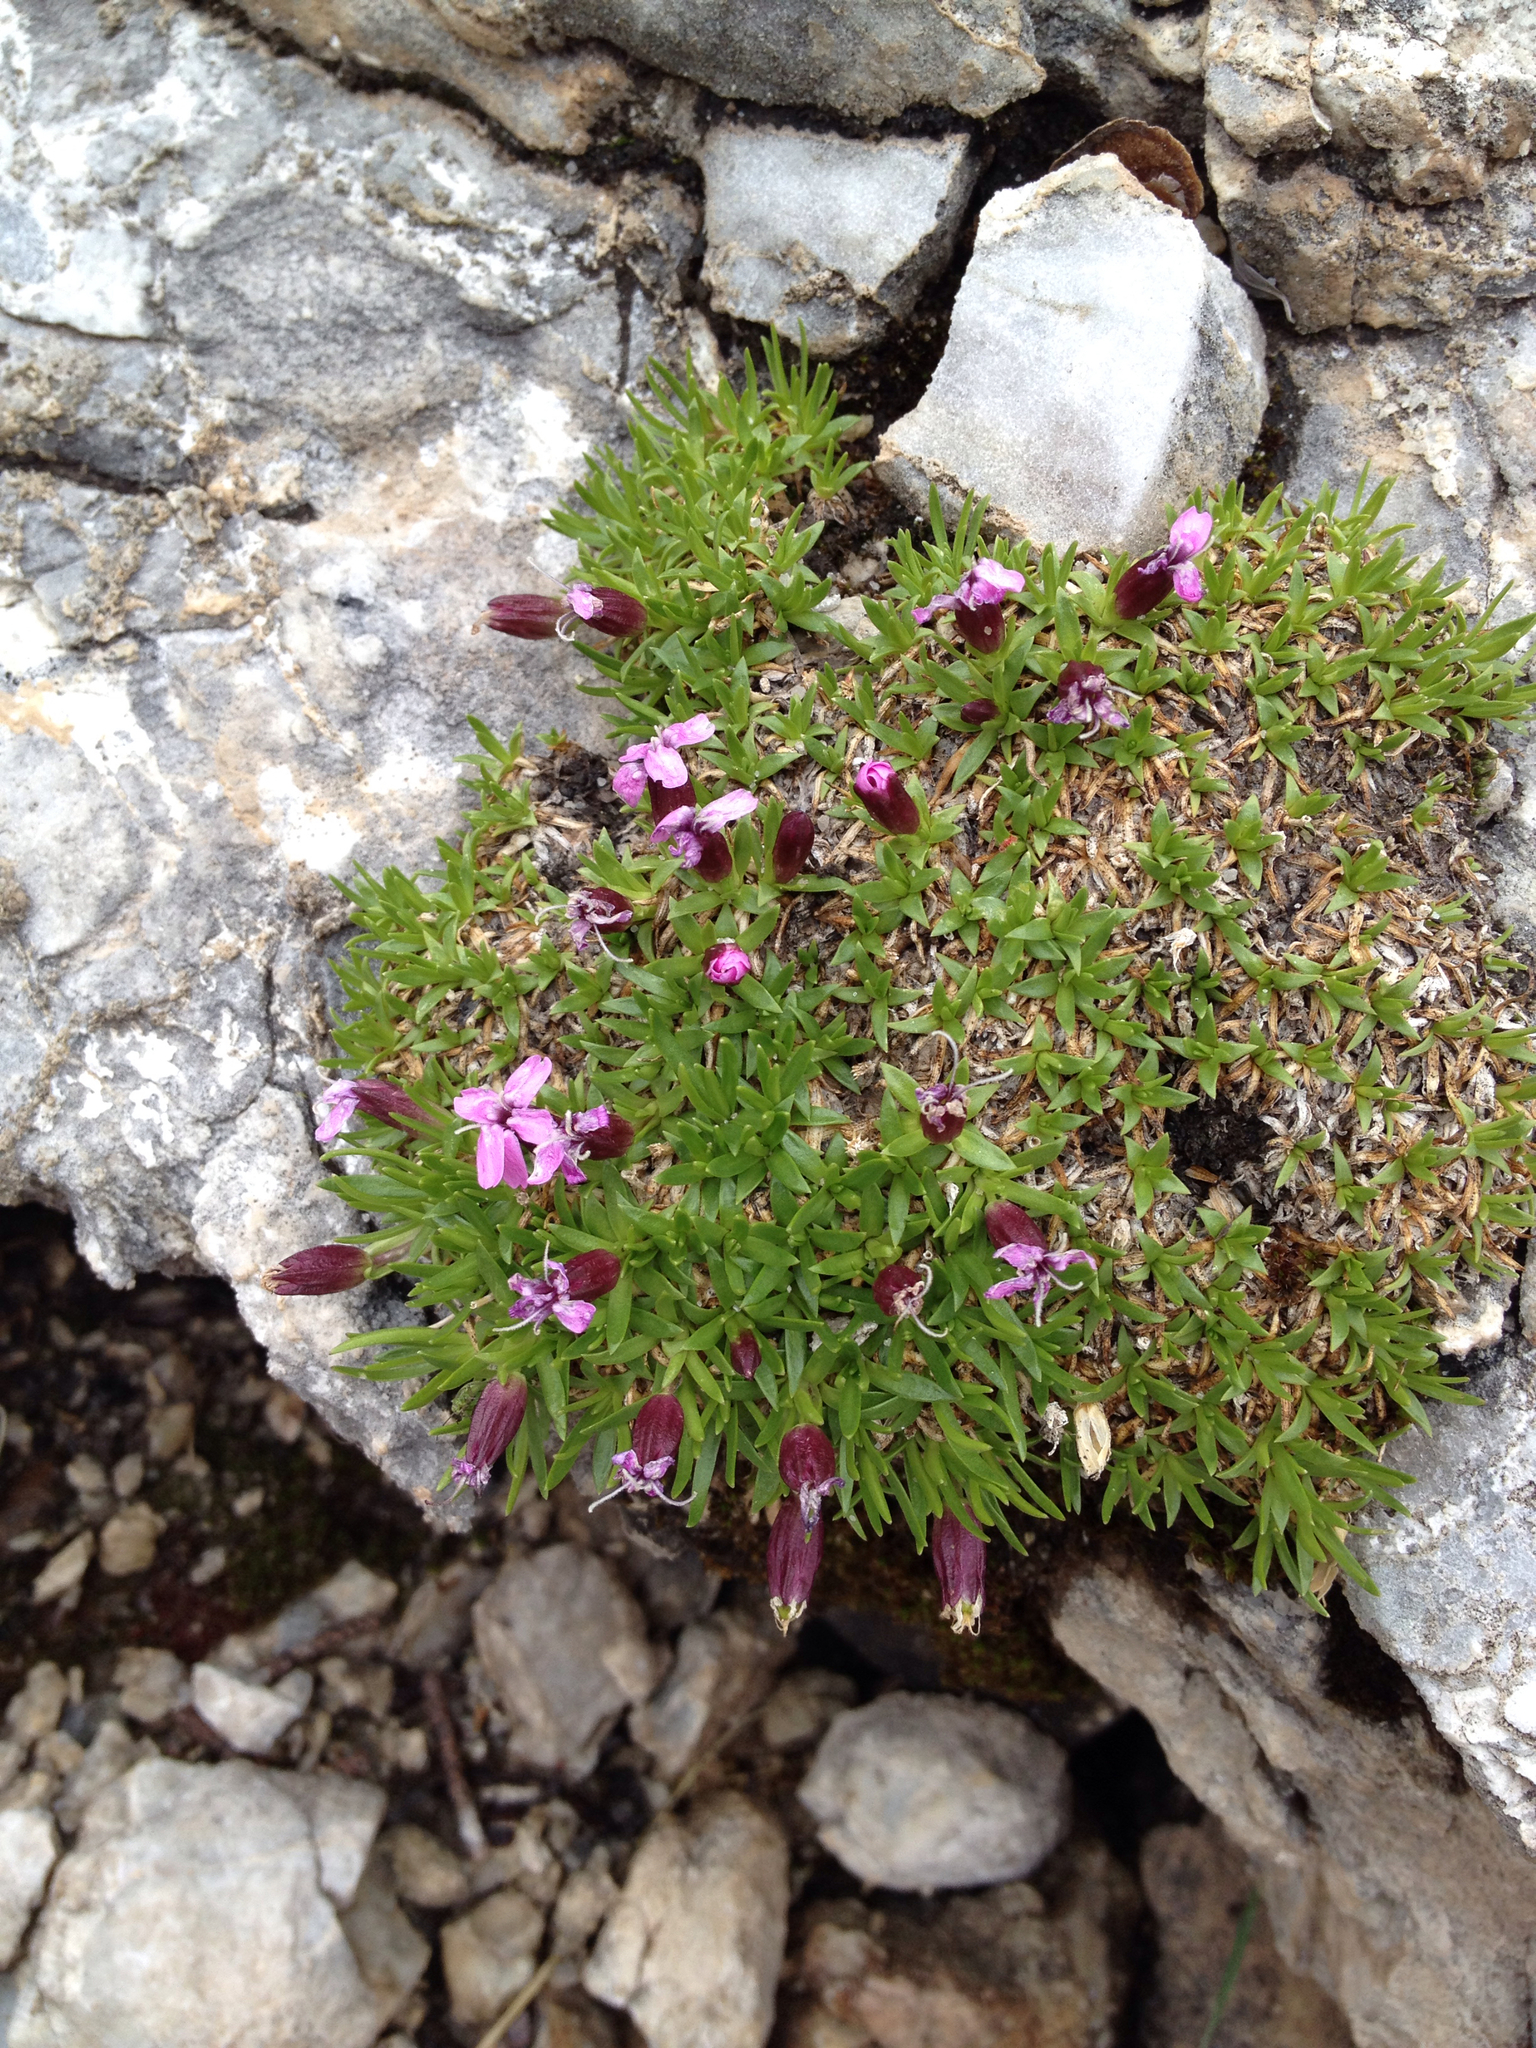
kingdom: Plantae
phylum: Tracheophyta
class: Magnoliopsida
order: Caryophyllales
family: Caryophyllaceae
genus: Silene
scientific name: Silene acaulis
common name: Moss campion
